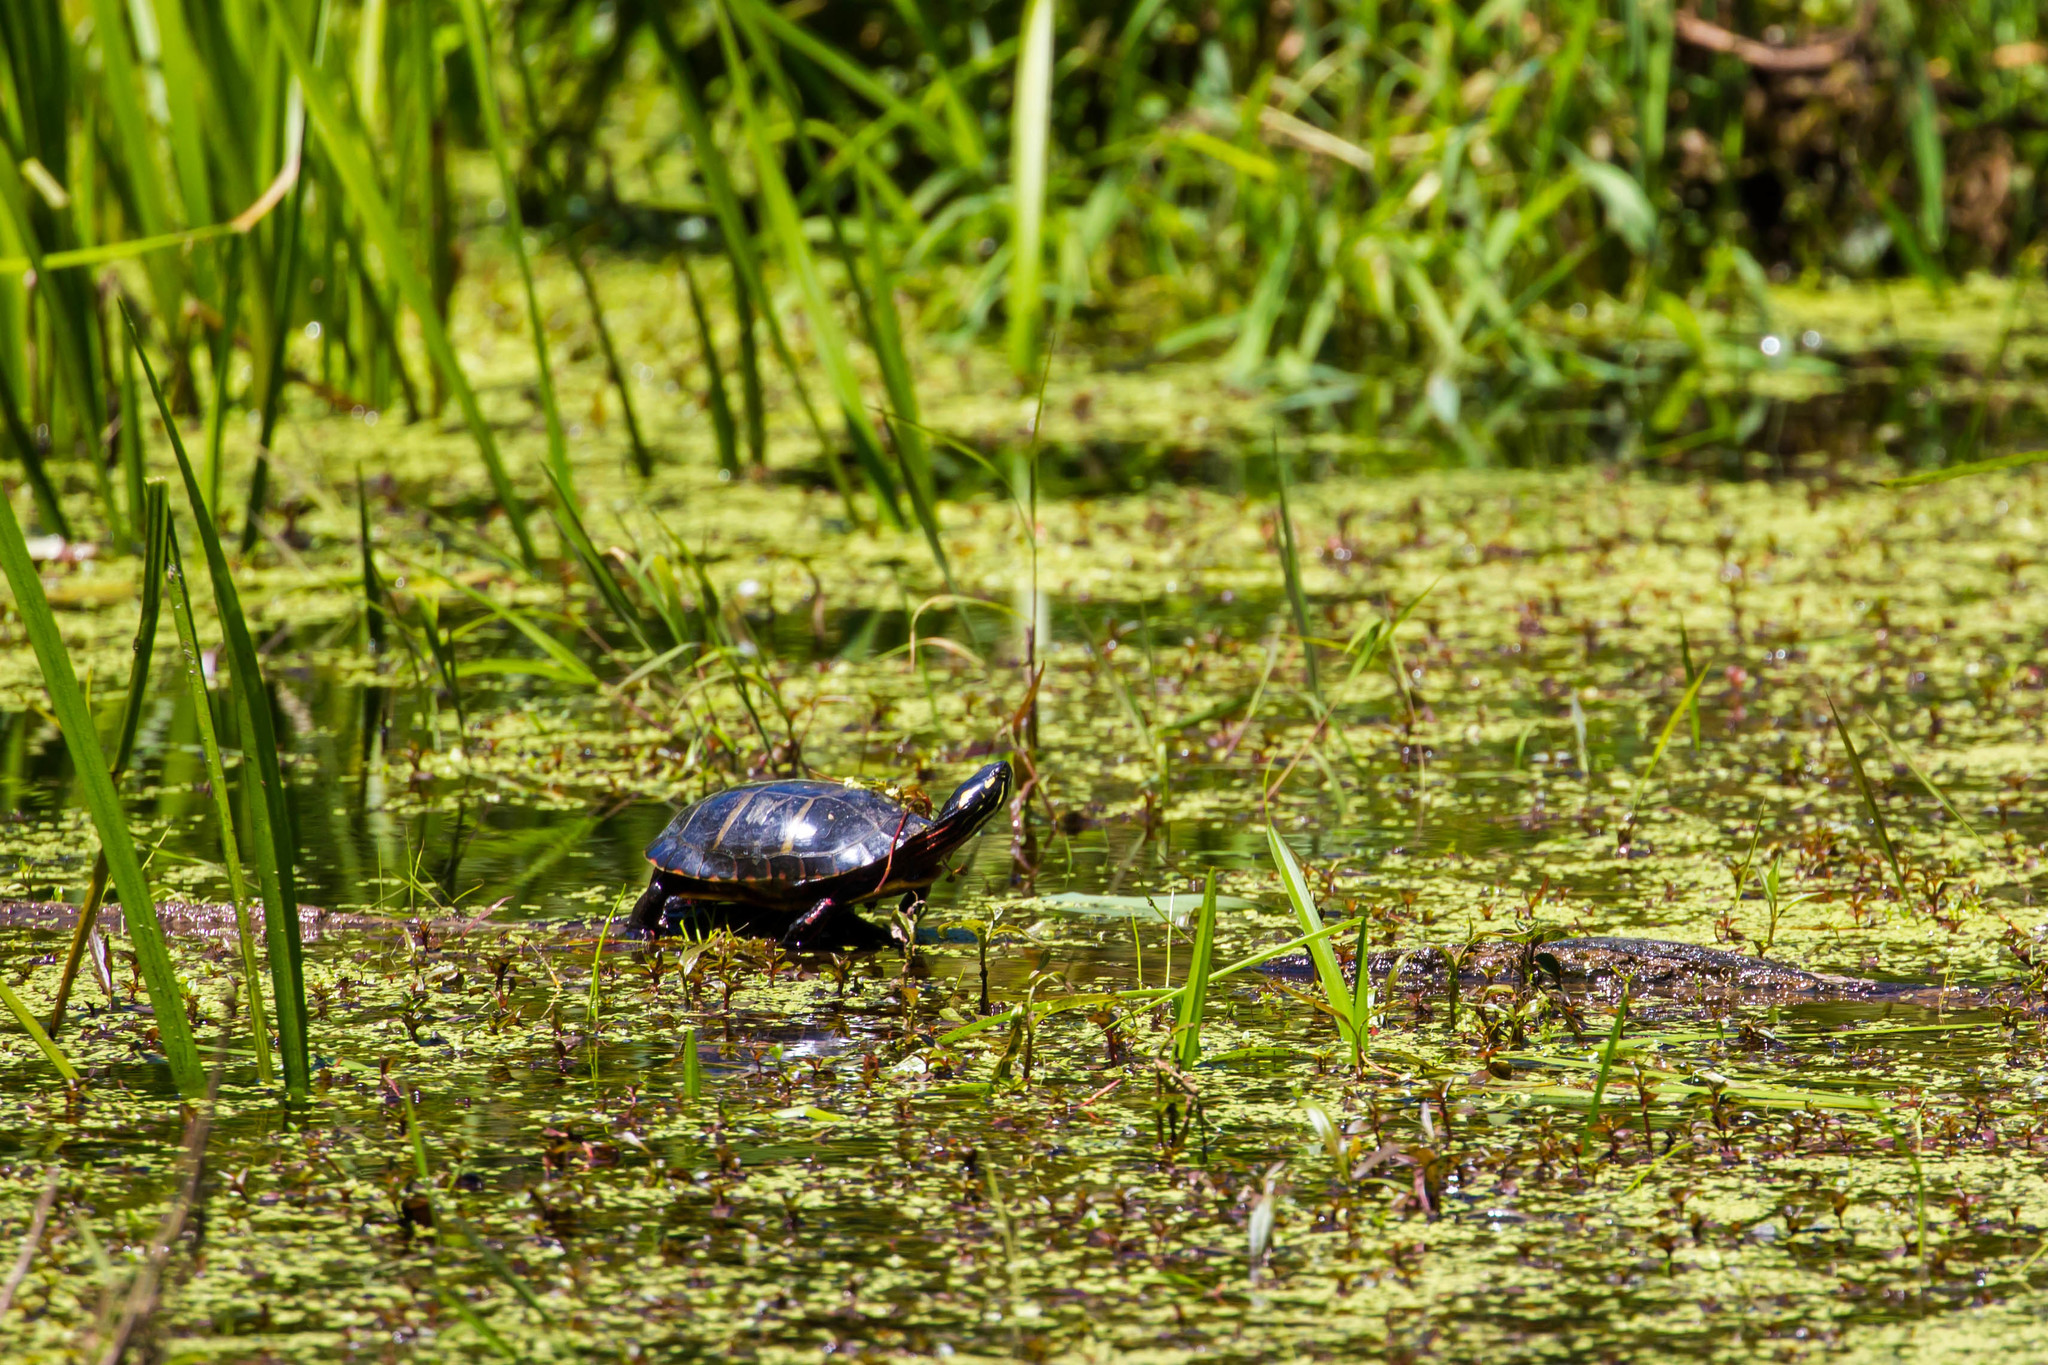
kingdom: Animalia
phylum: Chordata
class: Testudines
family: Emydidae
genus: Chrysemys
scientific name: Chrysemys picta
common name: Painted turtle
